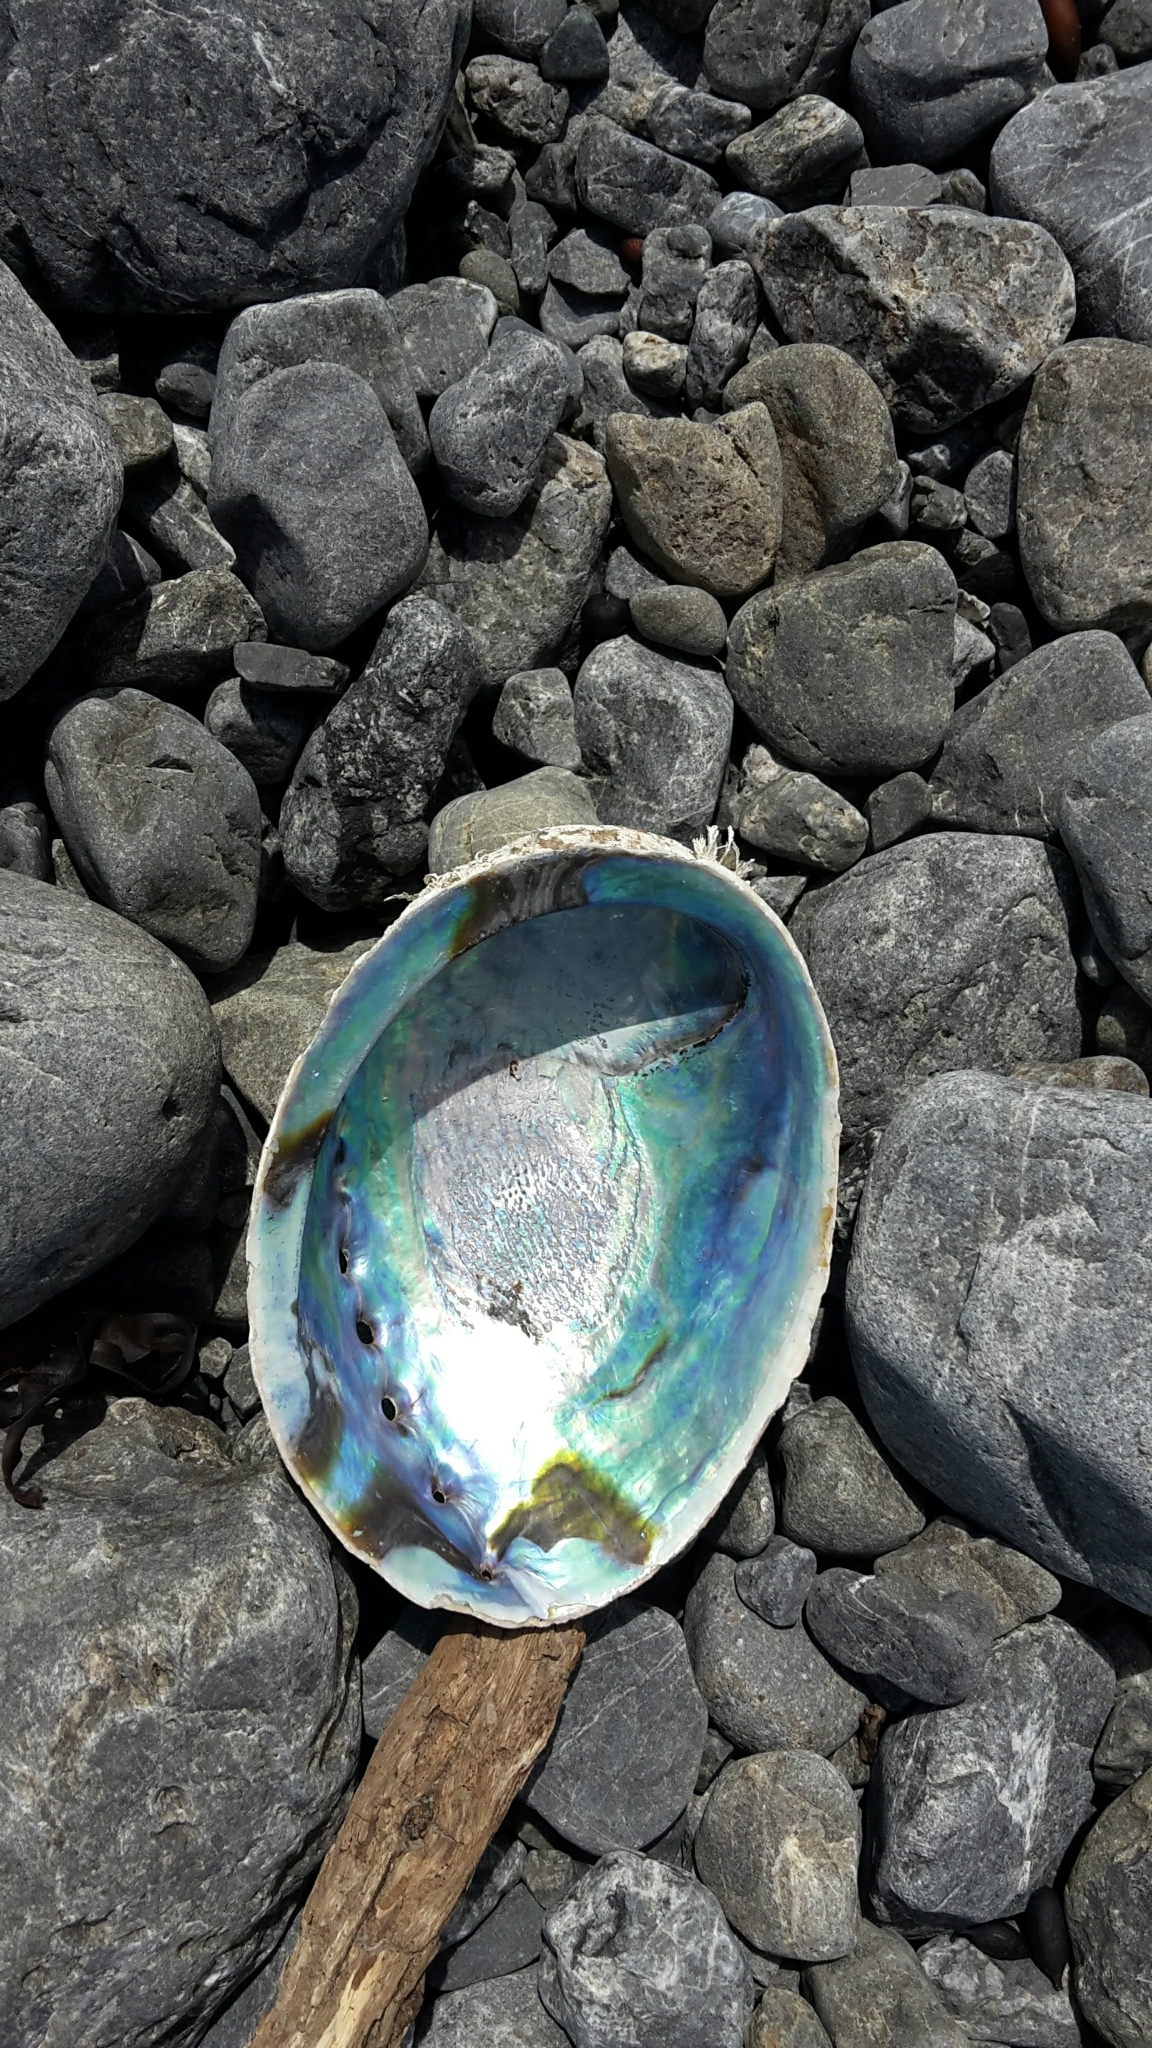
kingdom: Animalia
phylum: Mollusca
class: Gastropoda
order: Lepetellida
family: Haliotidae
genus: Haliotis
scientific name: Haliotis iris
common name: Abalone
